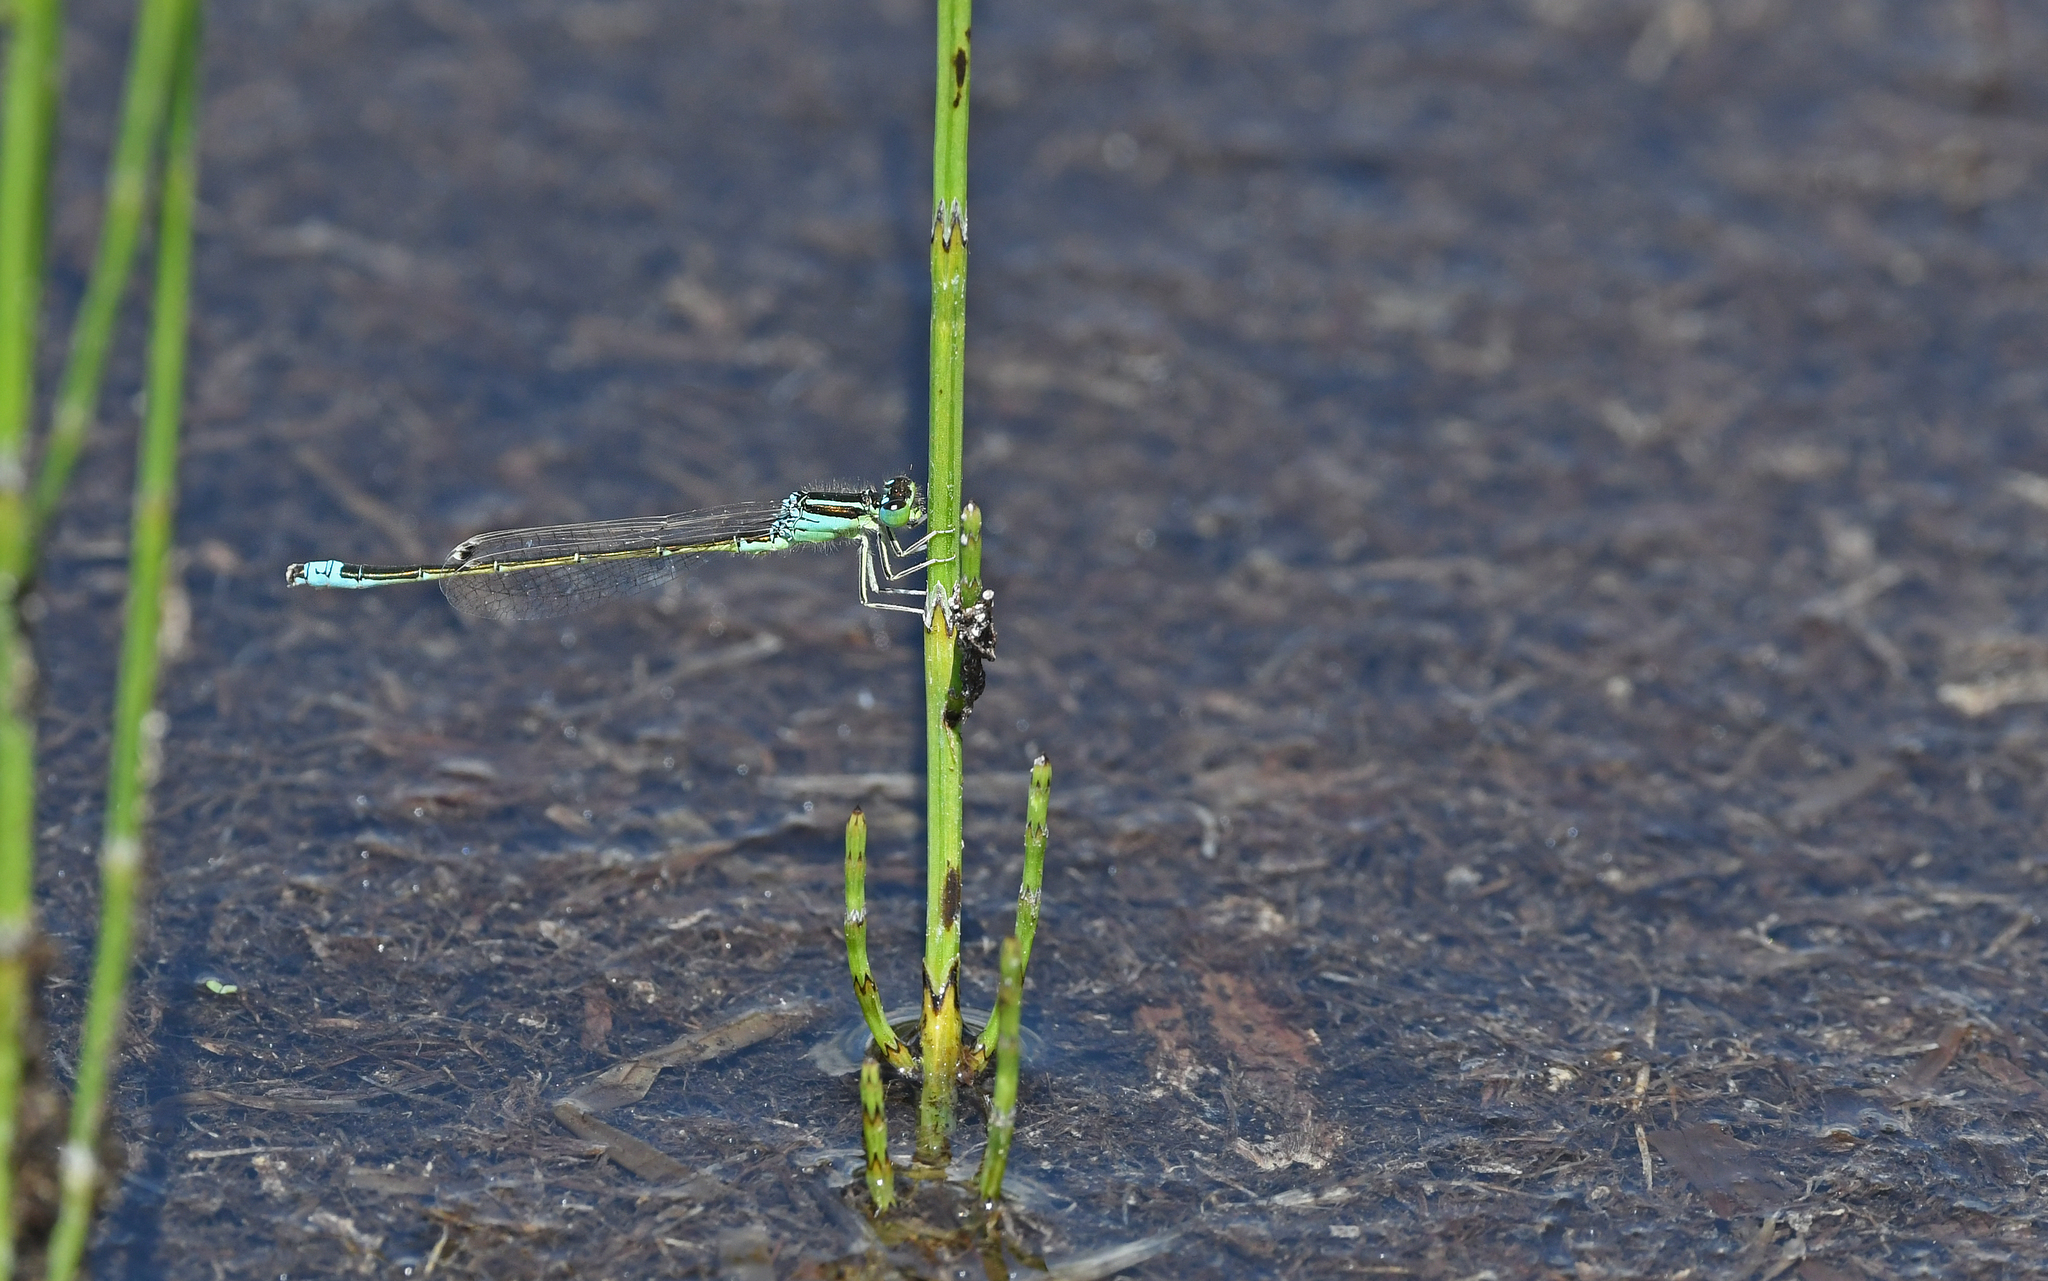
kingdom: Animalia
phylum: Arthropoda
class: Insecta
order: Odonata
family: Coenagrionidae
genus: Ischnura
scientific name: Ischnura pumilio
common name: Scarce blue-tailed damselfly
